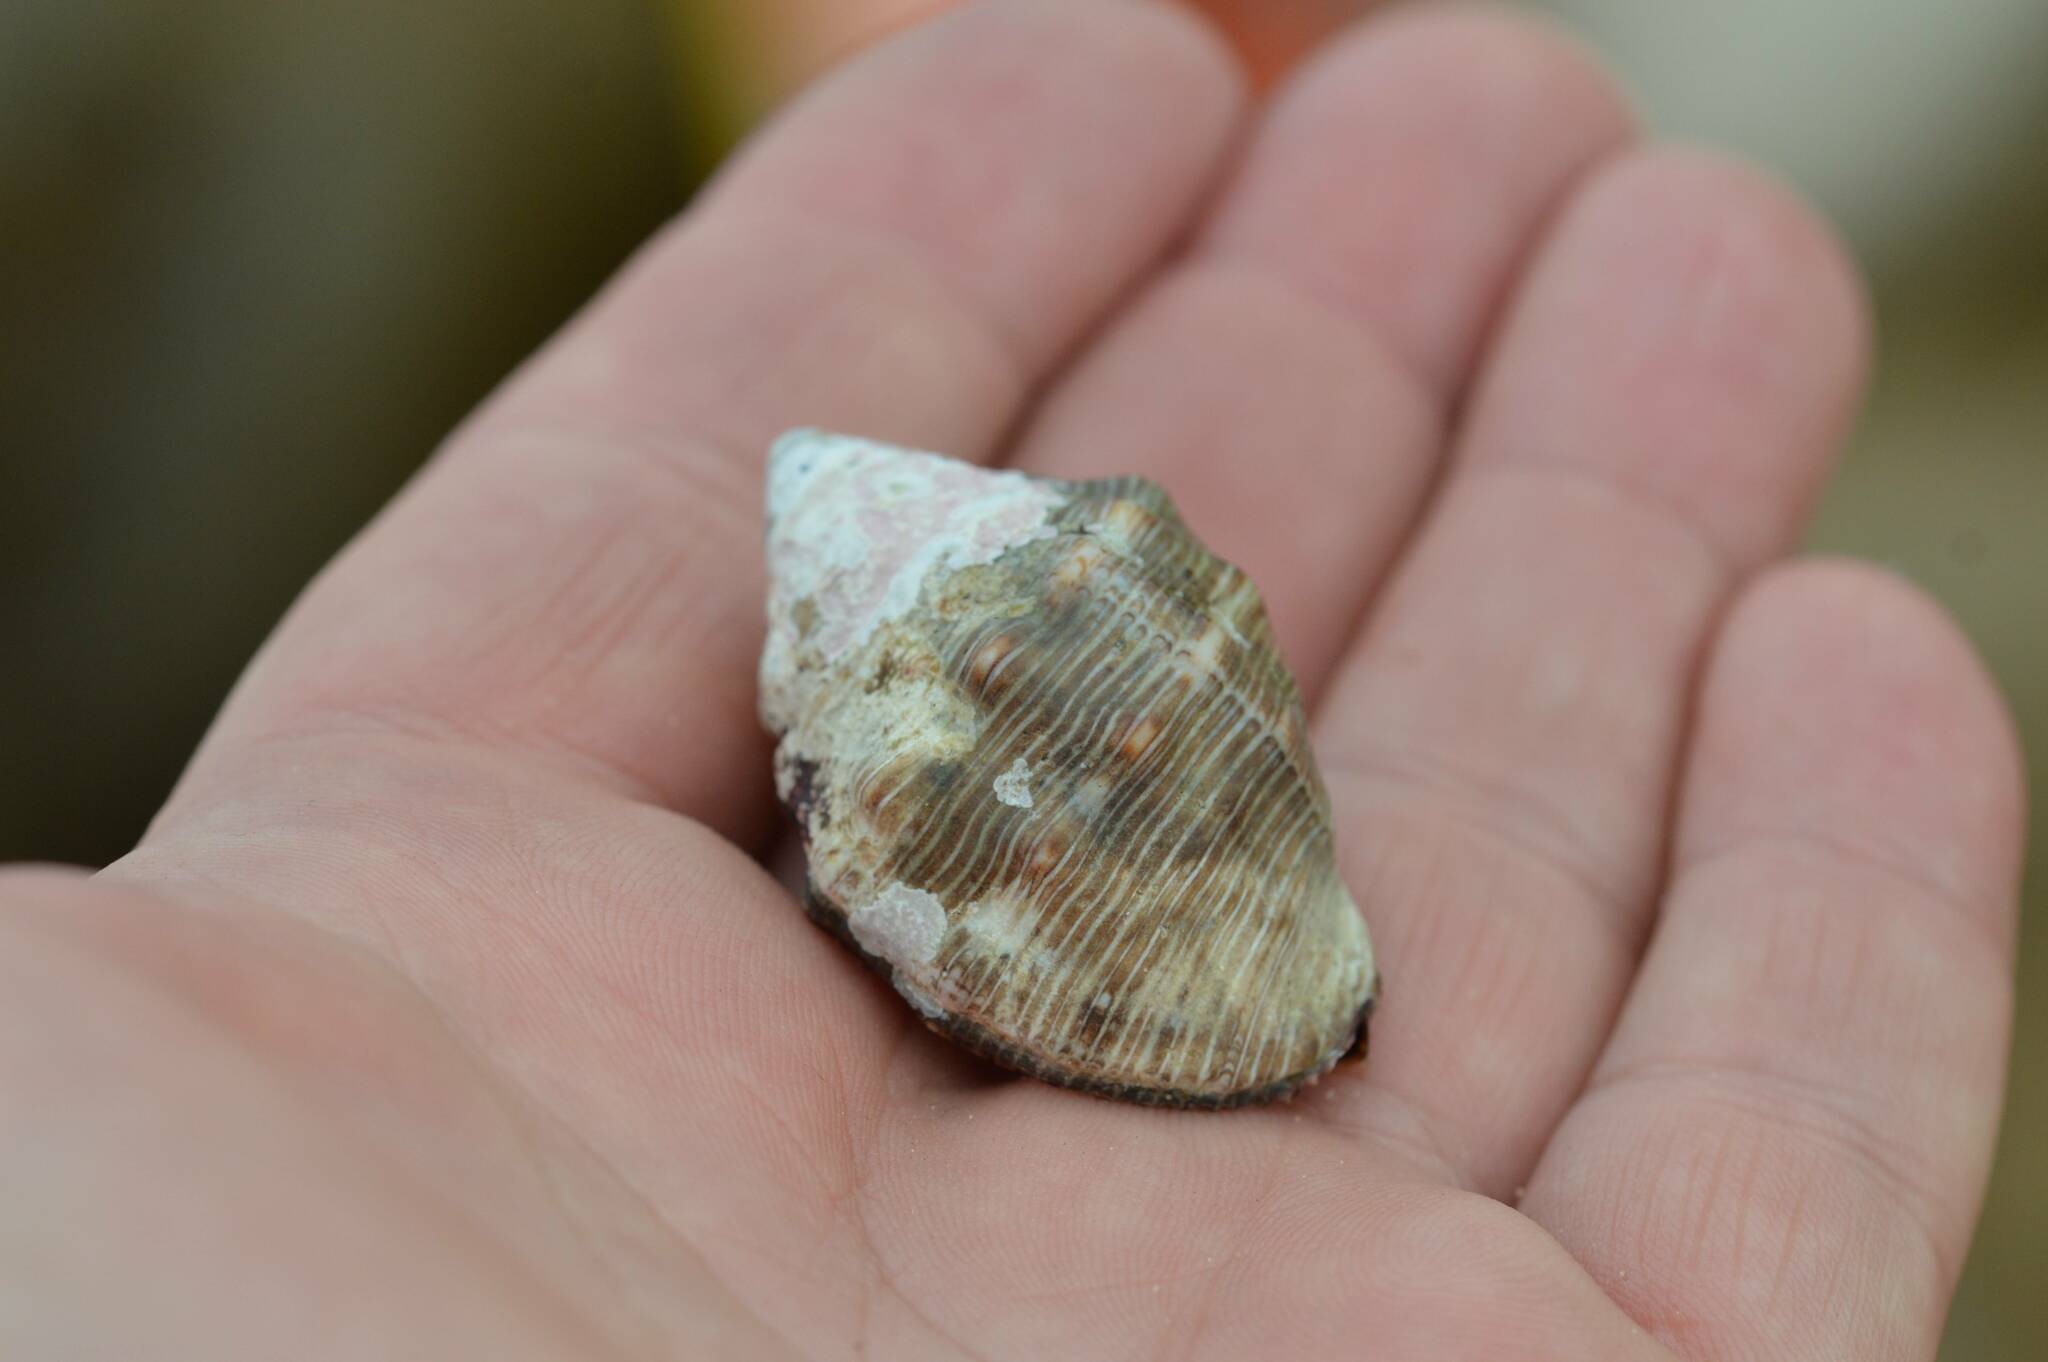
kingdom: Animalia
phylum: Mollusca
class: Gastropoda
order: Neogastropoda
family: Muricidae
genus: Stramonita
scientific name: Stramonita haemastoma
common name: Florida dog winkle
